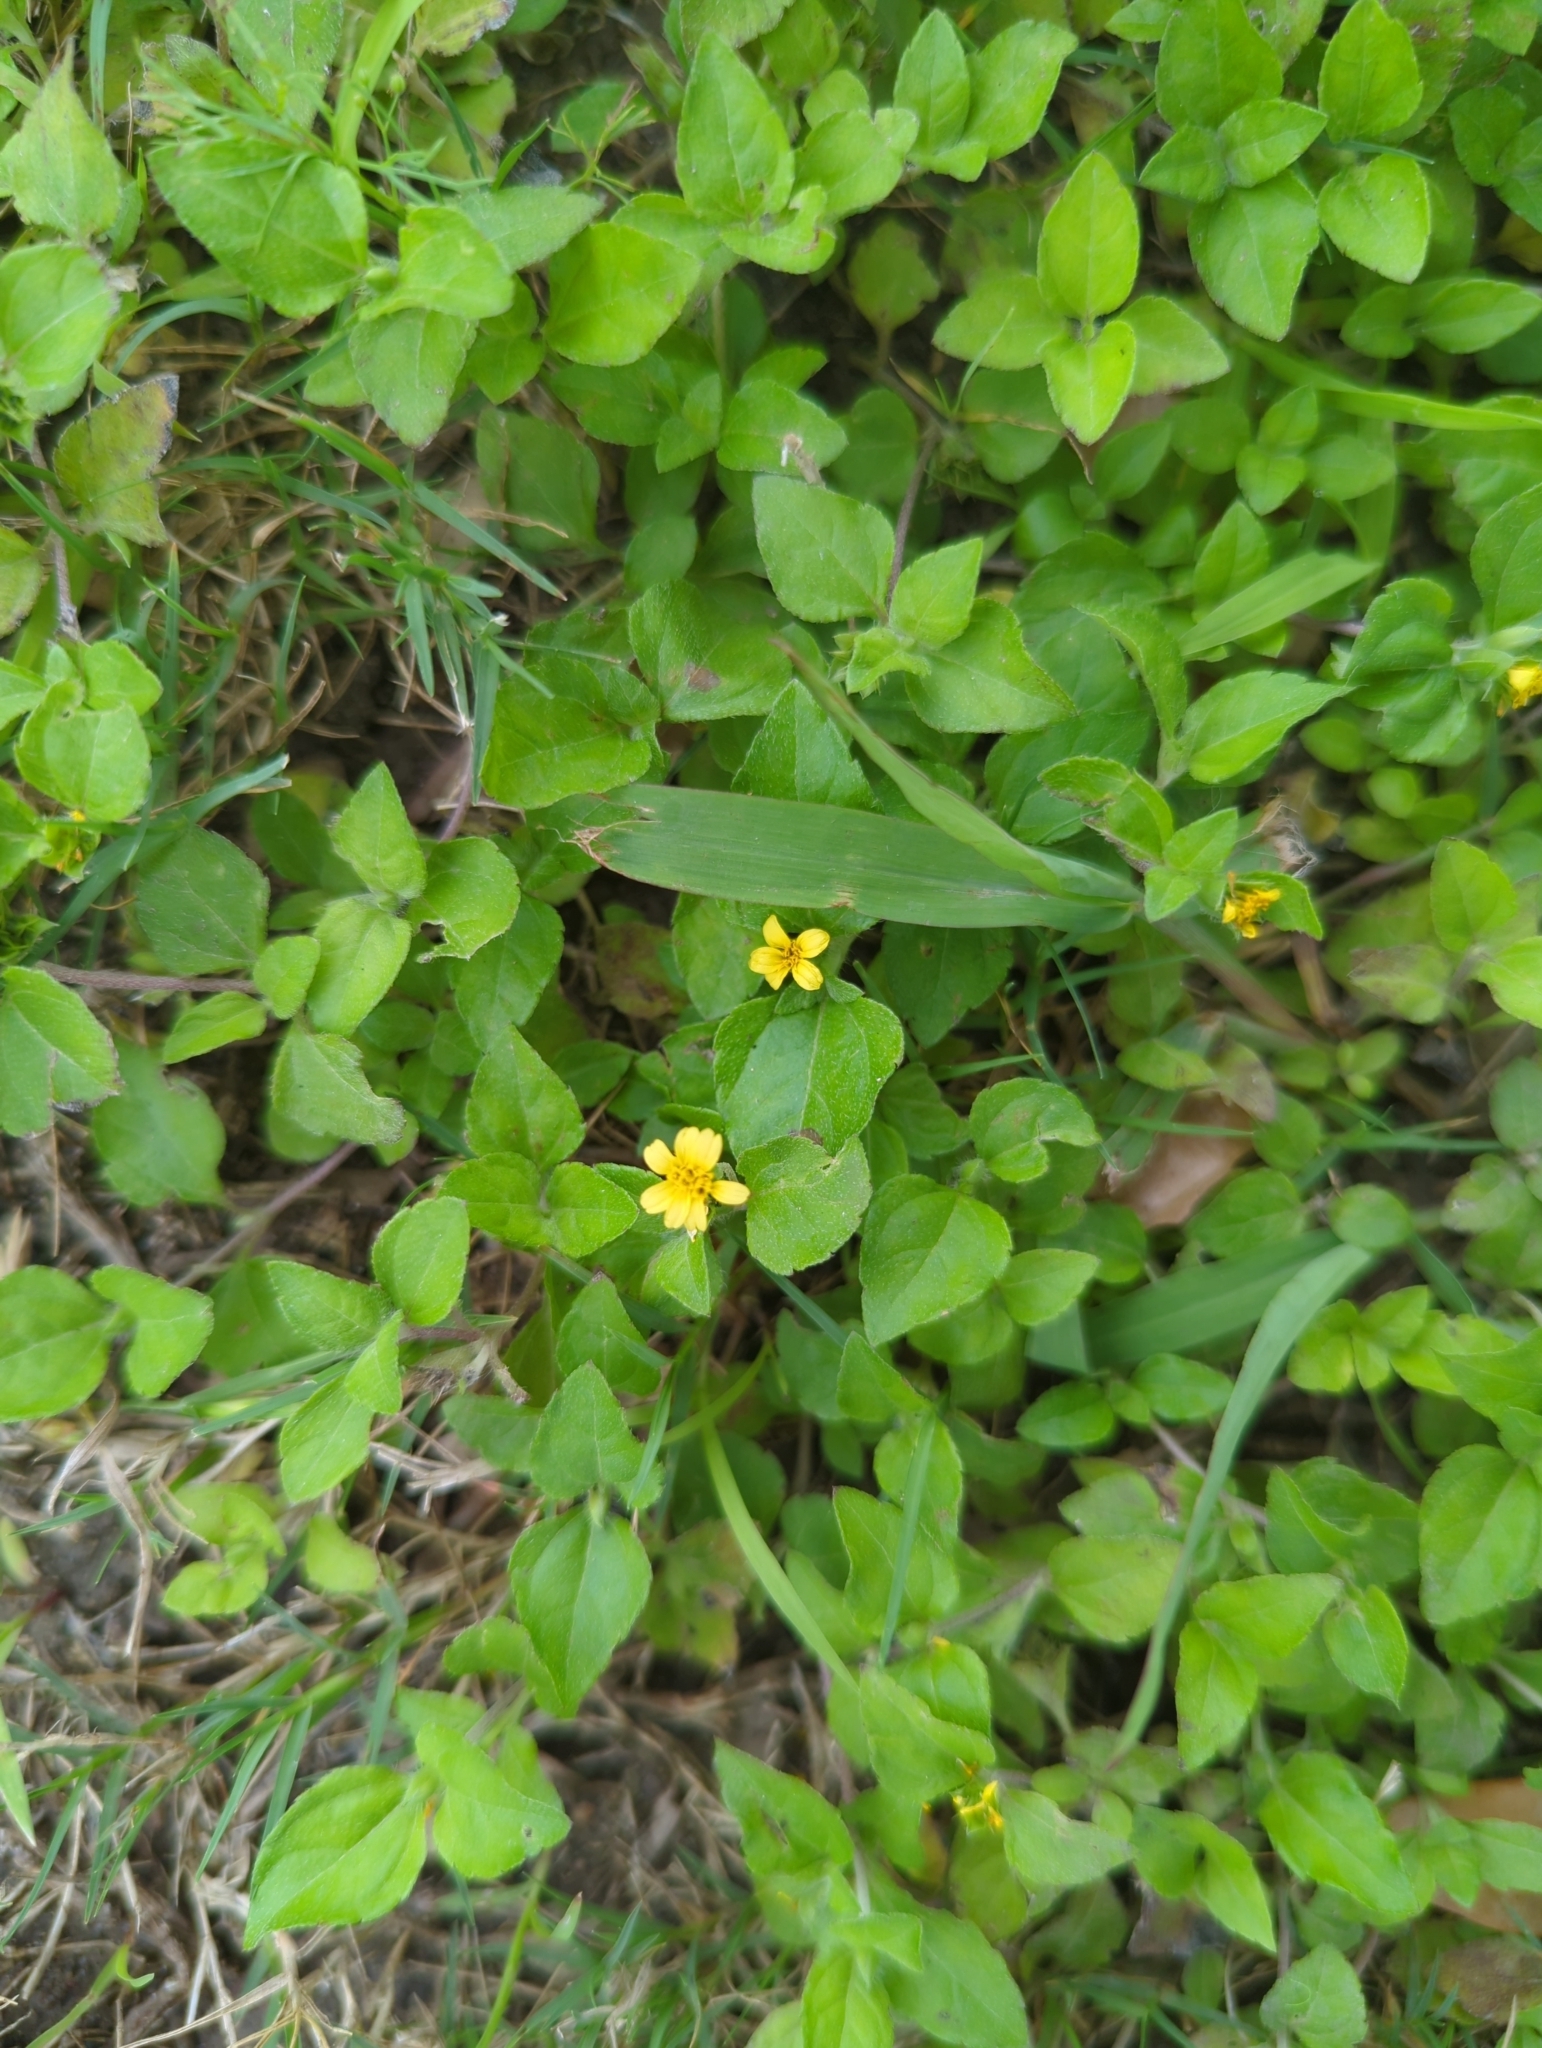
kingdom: Plantae
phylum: Tracheophyta
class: Magnoliopsida
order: Asterales
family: Asteraceae
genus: Calyptocarpus
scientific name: Calyptocarpus vialis
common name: Straggler daisy
